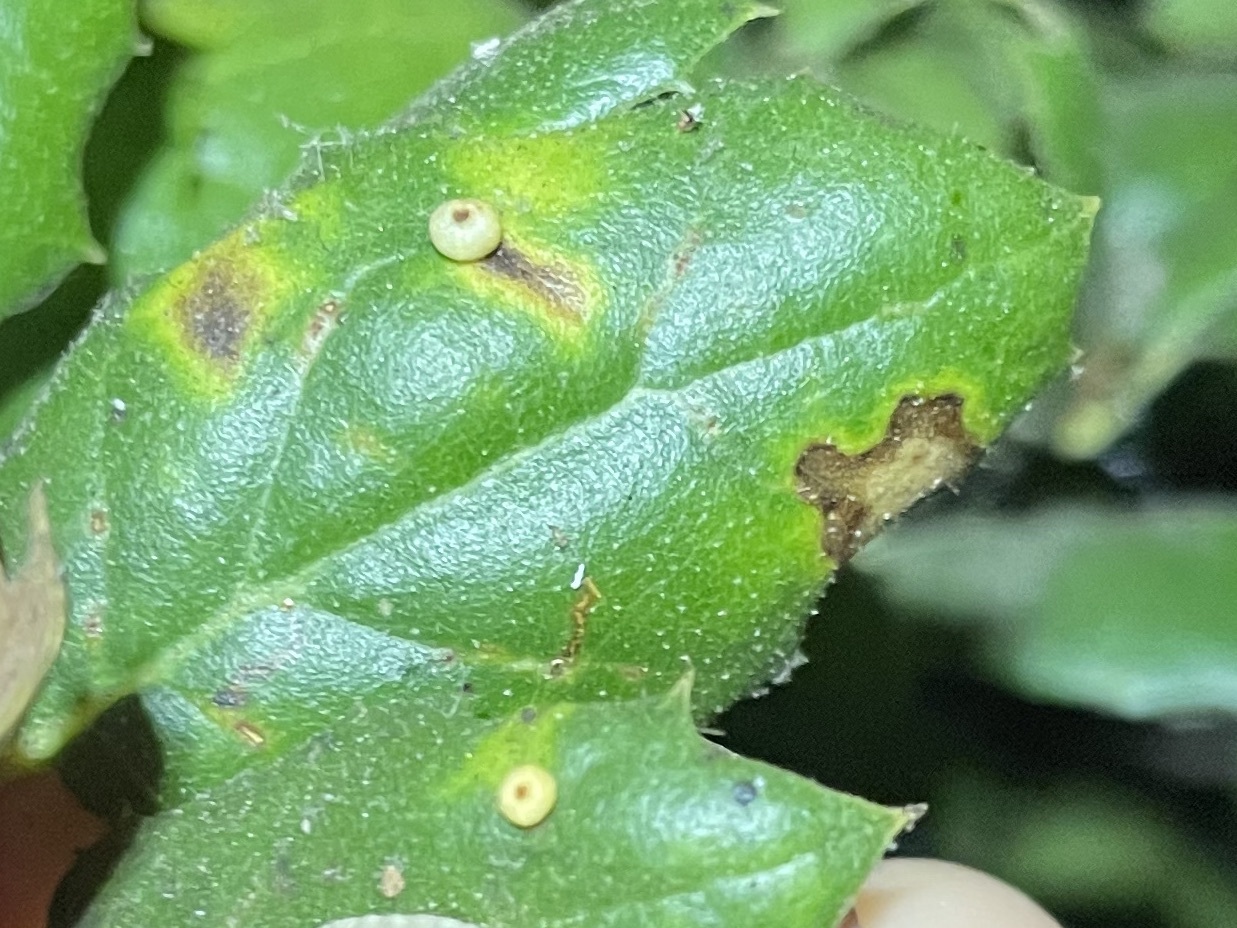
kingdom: Animalia
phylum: Arthropoda
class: Insecta
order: Hymenoptera
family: Cynipidae
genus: Dryocosmus
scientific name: Dryocosmus
